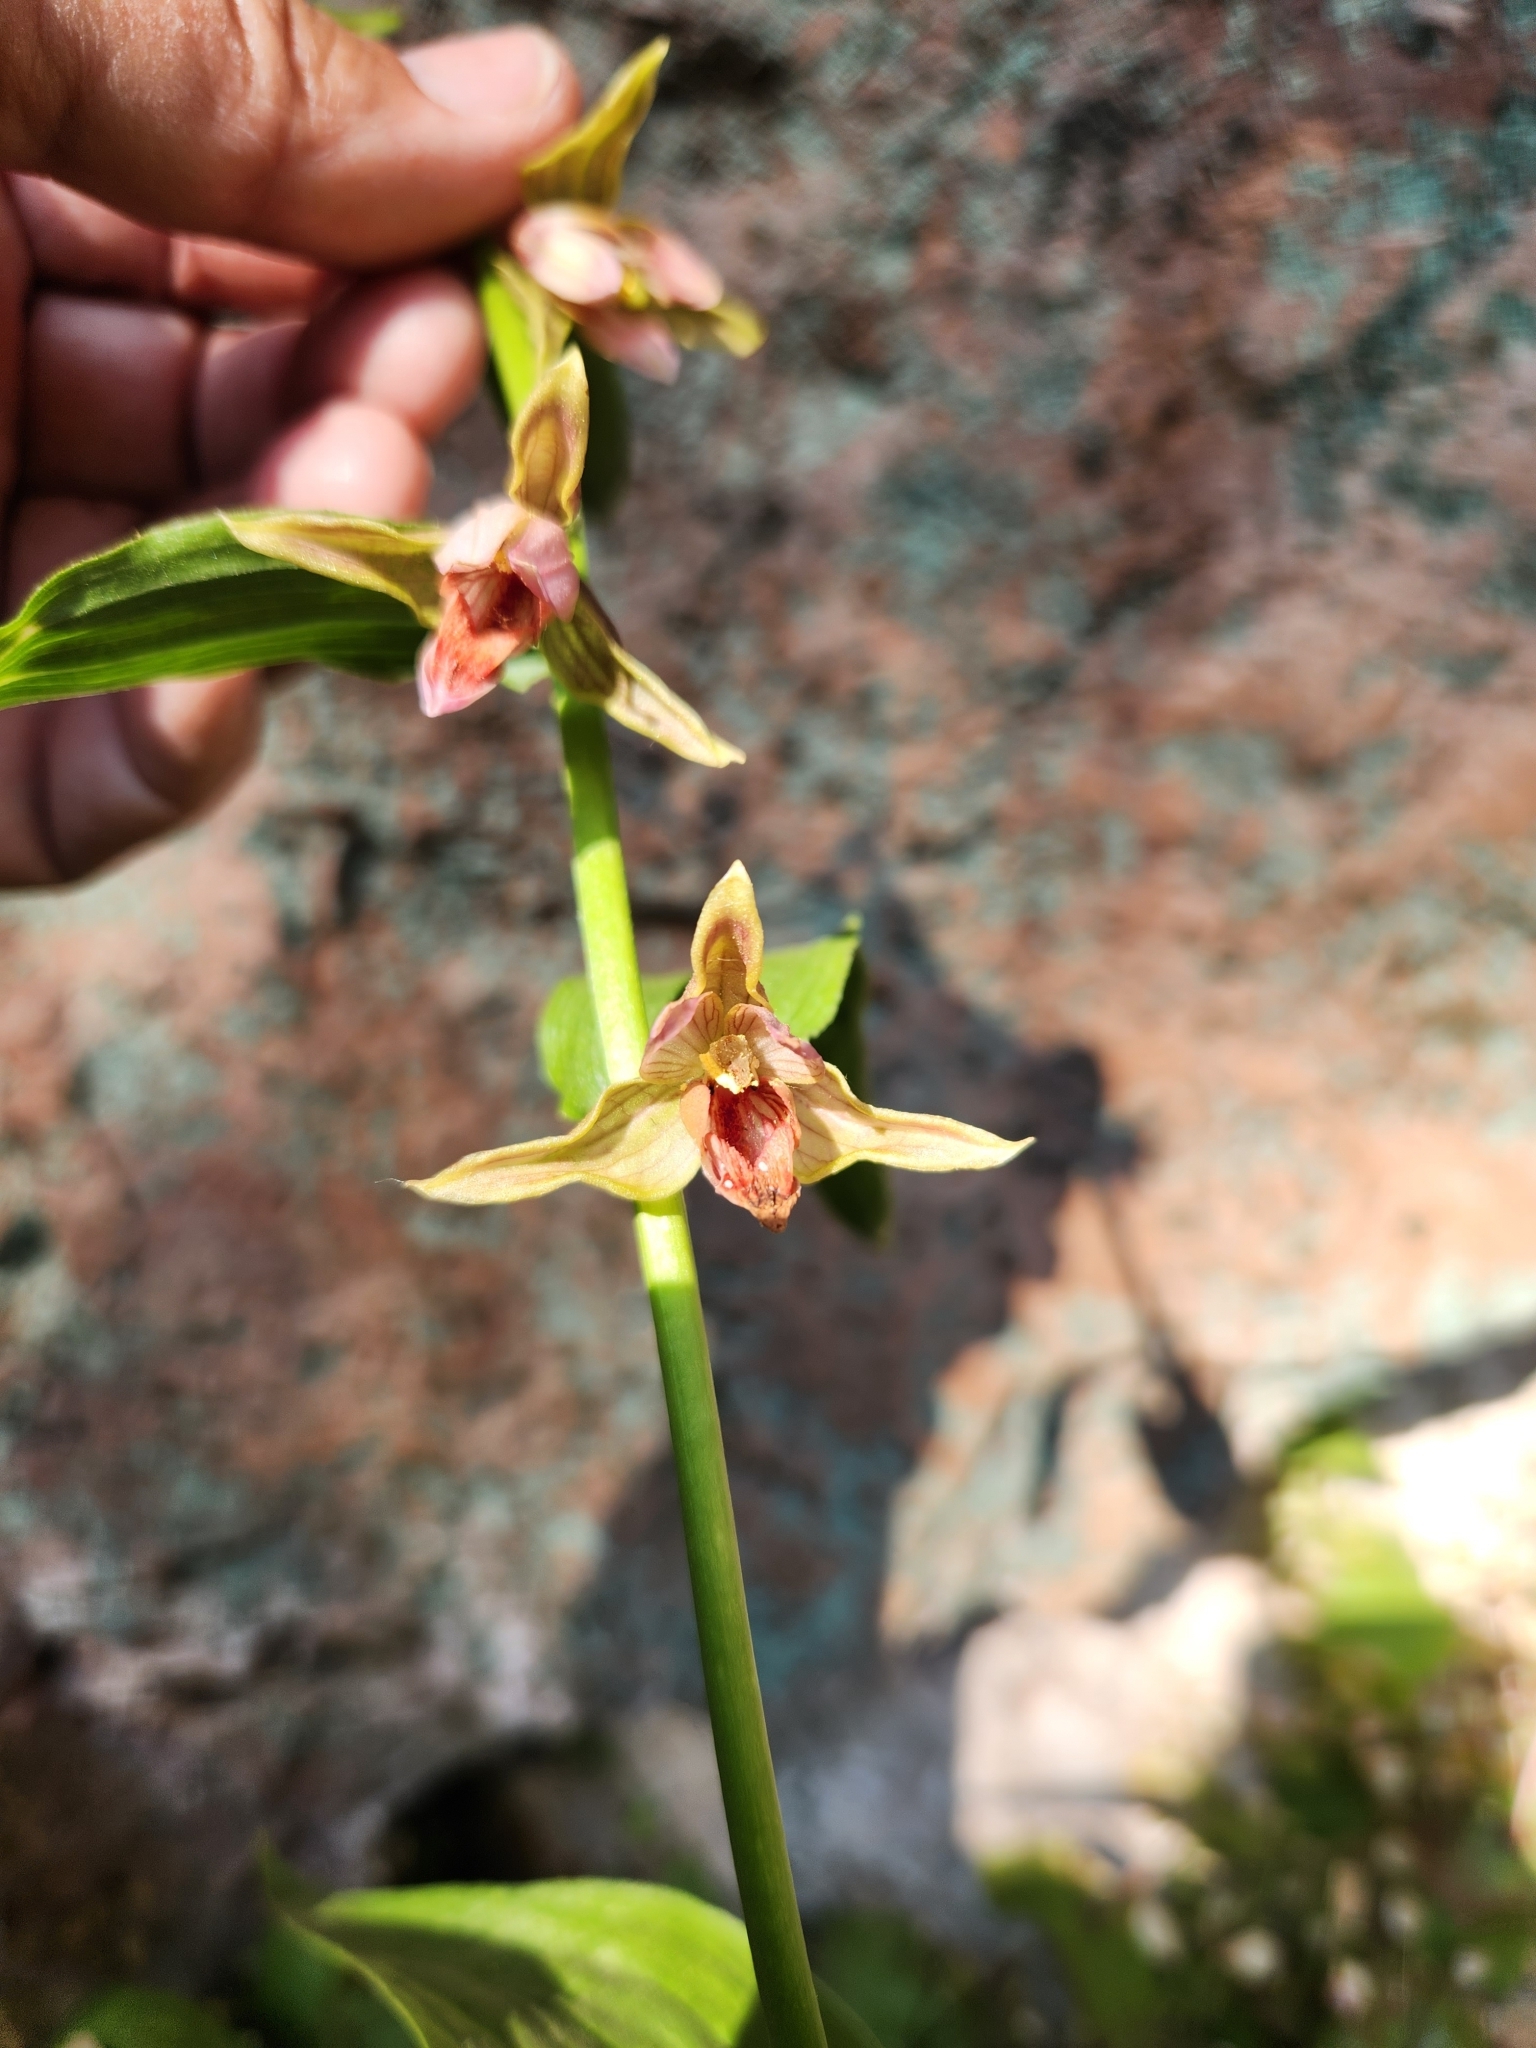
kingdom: Plantae
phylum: Tracheophyta
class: Liliopsida
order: Asparagales
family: Orchidaceae
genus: Epipactis
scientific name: Epipactis gigantea
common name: Chatterbox
